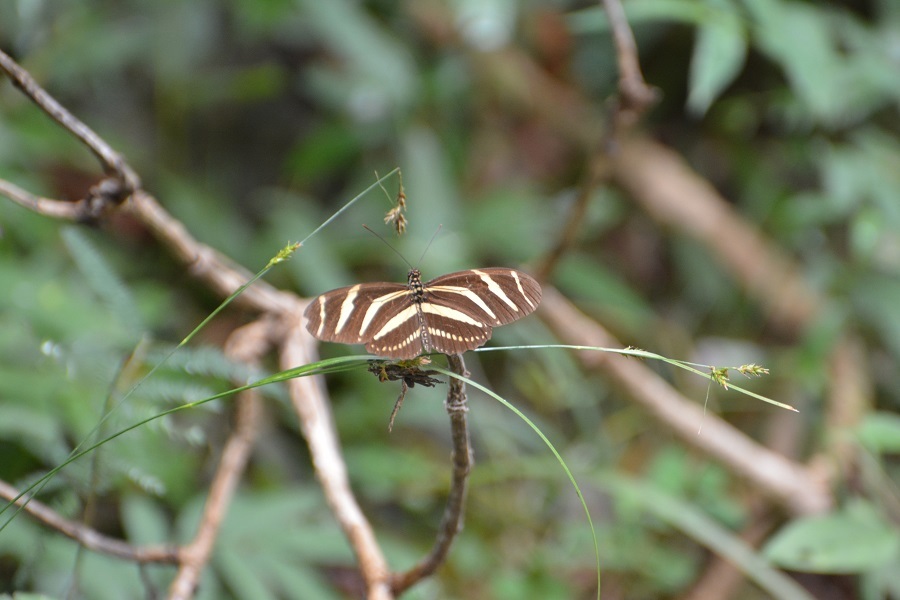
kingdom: Animalia
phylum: Arthropoda
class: Insecta
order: Lepidoptera
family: Nymphalidae
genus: Heliconius
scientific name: Heliconius charithonia
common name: Zebra long wing
